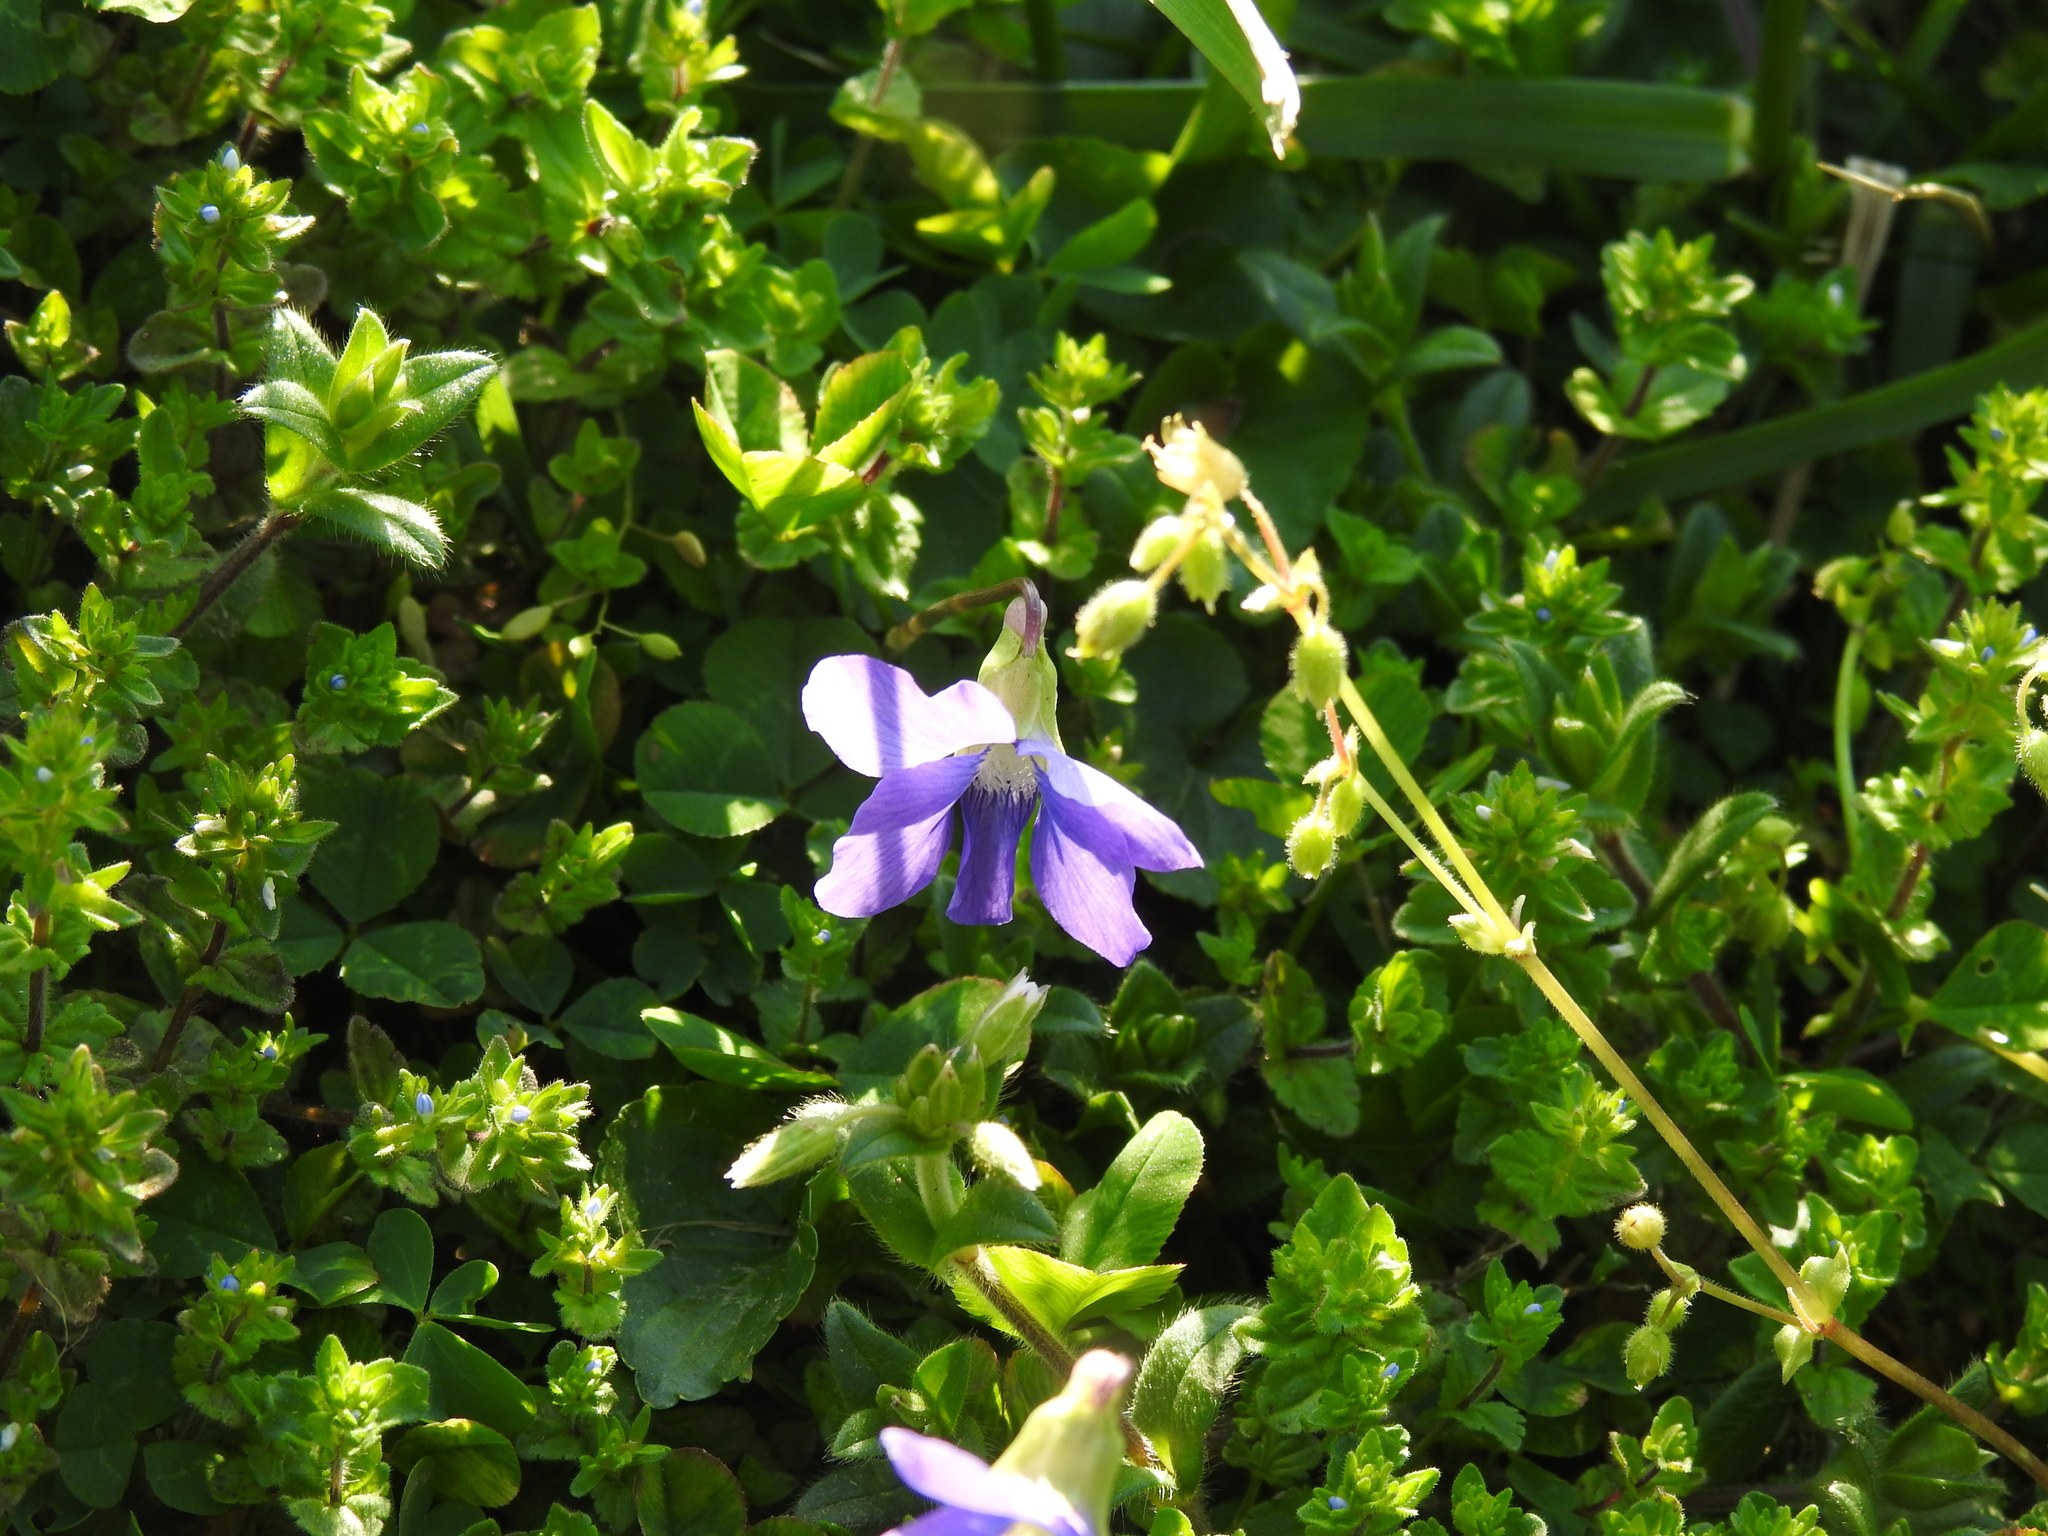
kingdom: Plantae
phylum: Tracheophyta
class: Magnoliopsida
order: Malpighiales
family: Violaceae
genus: Viola
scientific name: Viola sororia
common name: Dooryard violet
